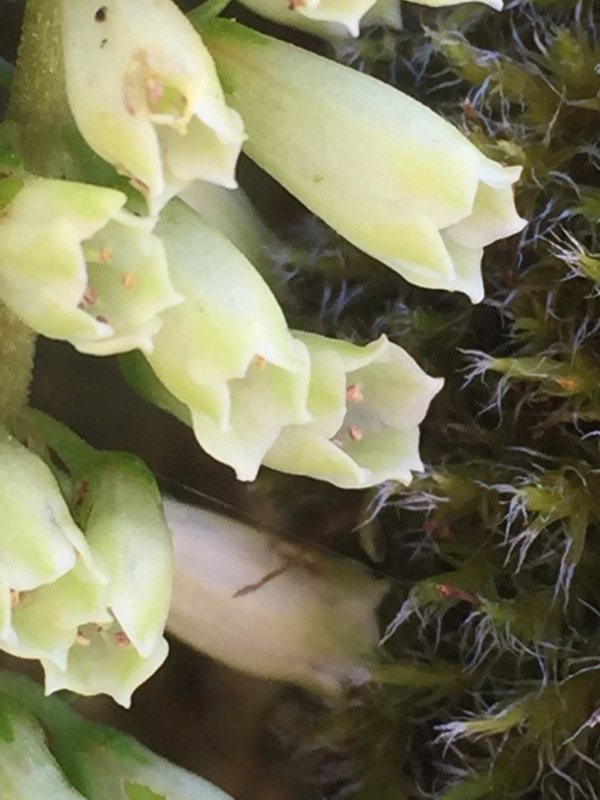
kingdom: Plantae
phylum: Tracheophyta
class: Magnoliopsida
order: Saxifragales
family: Crassulaceae
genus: Umbilicus
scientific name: Umbilicus rupestris
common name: Navelwort
